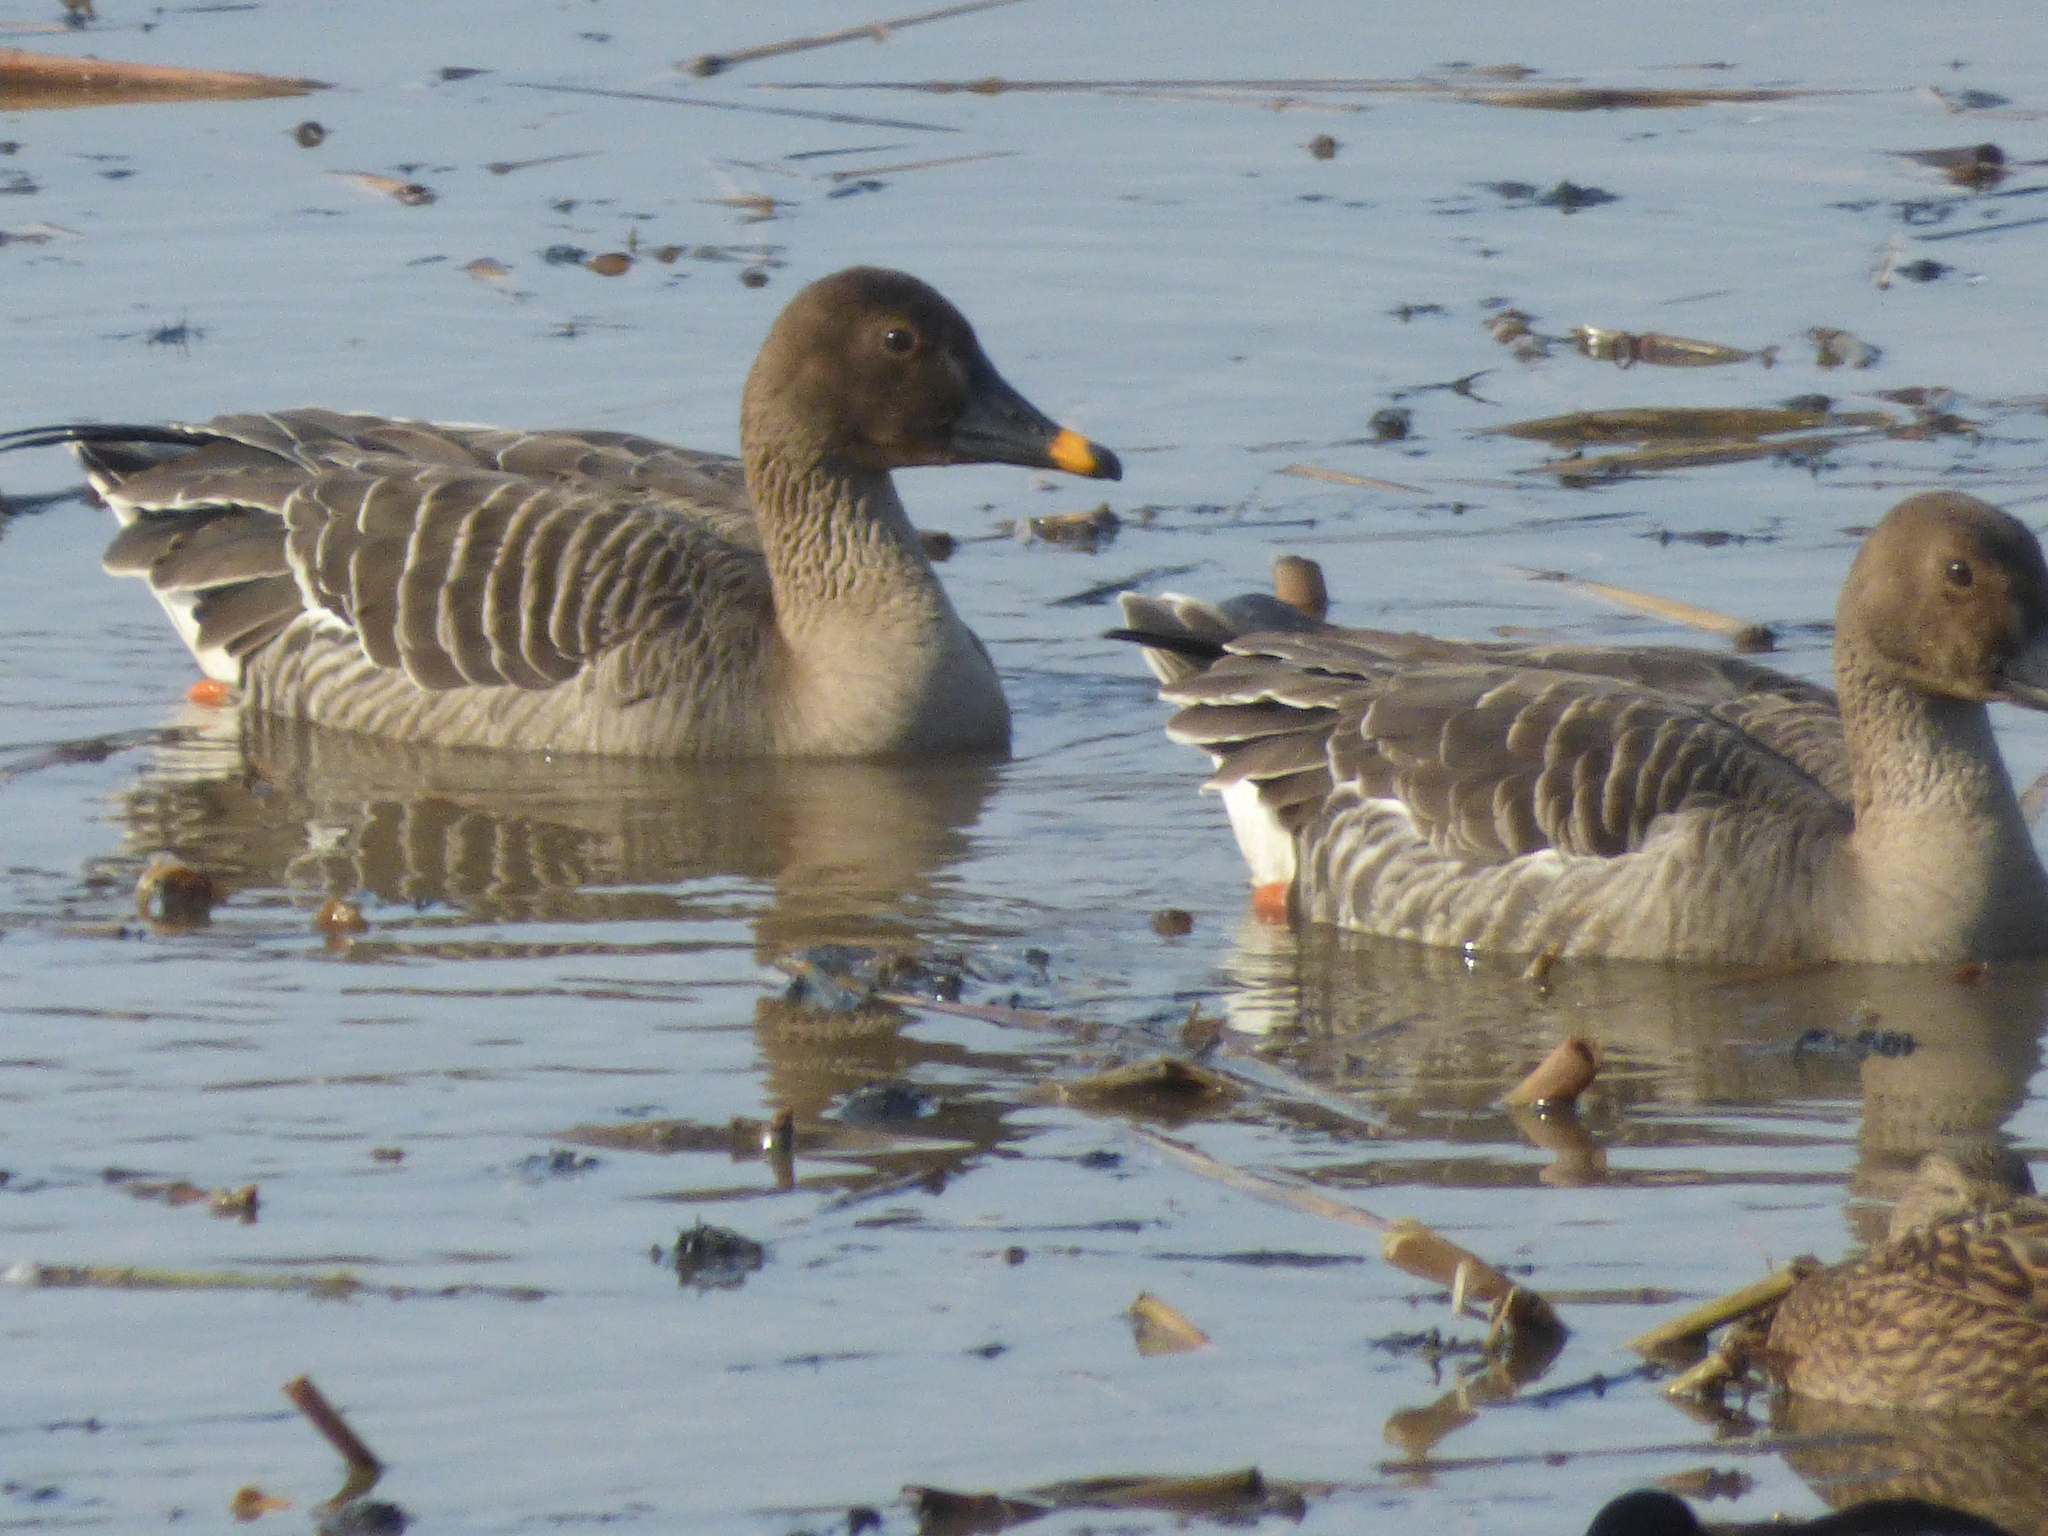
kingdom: Animalia
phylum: Chordata
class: Aves
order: Anseriformes
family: Anatidae
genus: Anser
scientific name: Anser serrirostris
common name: Tundra bean goose
